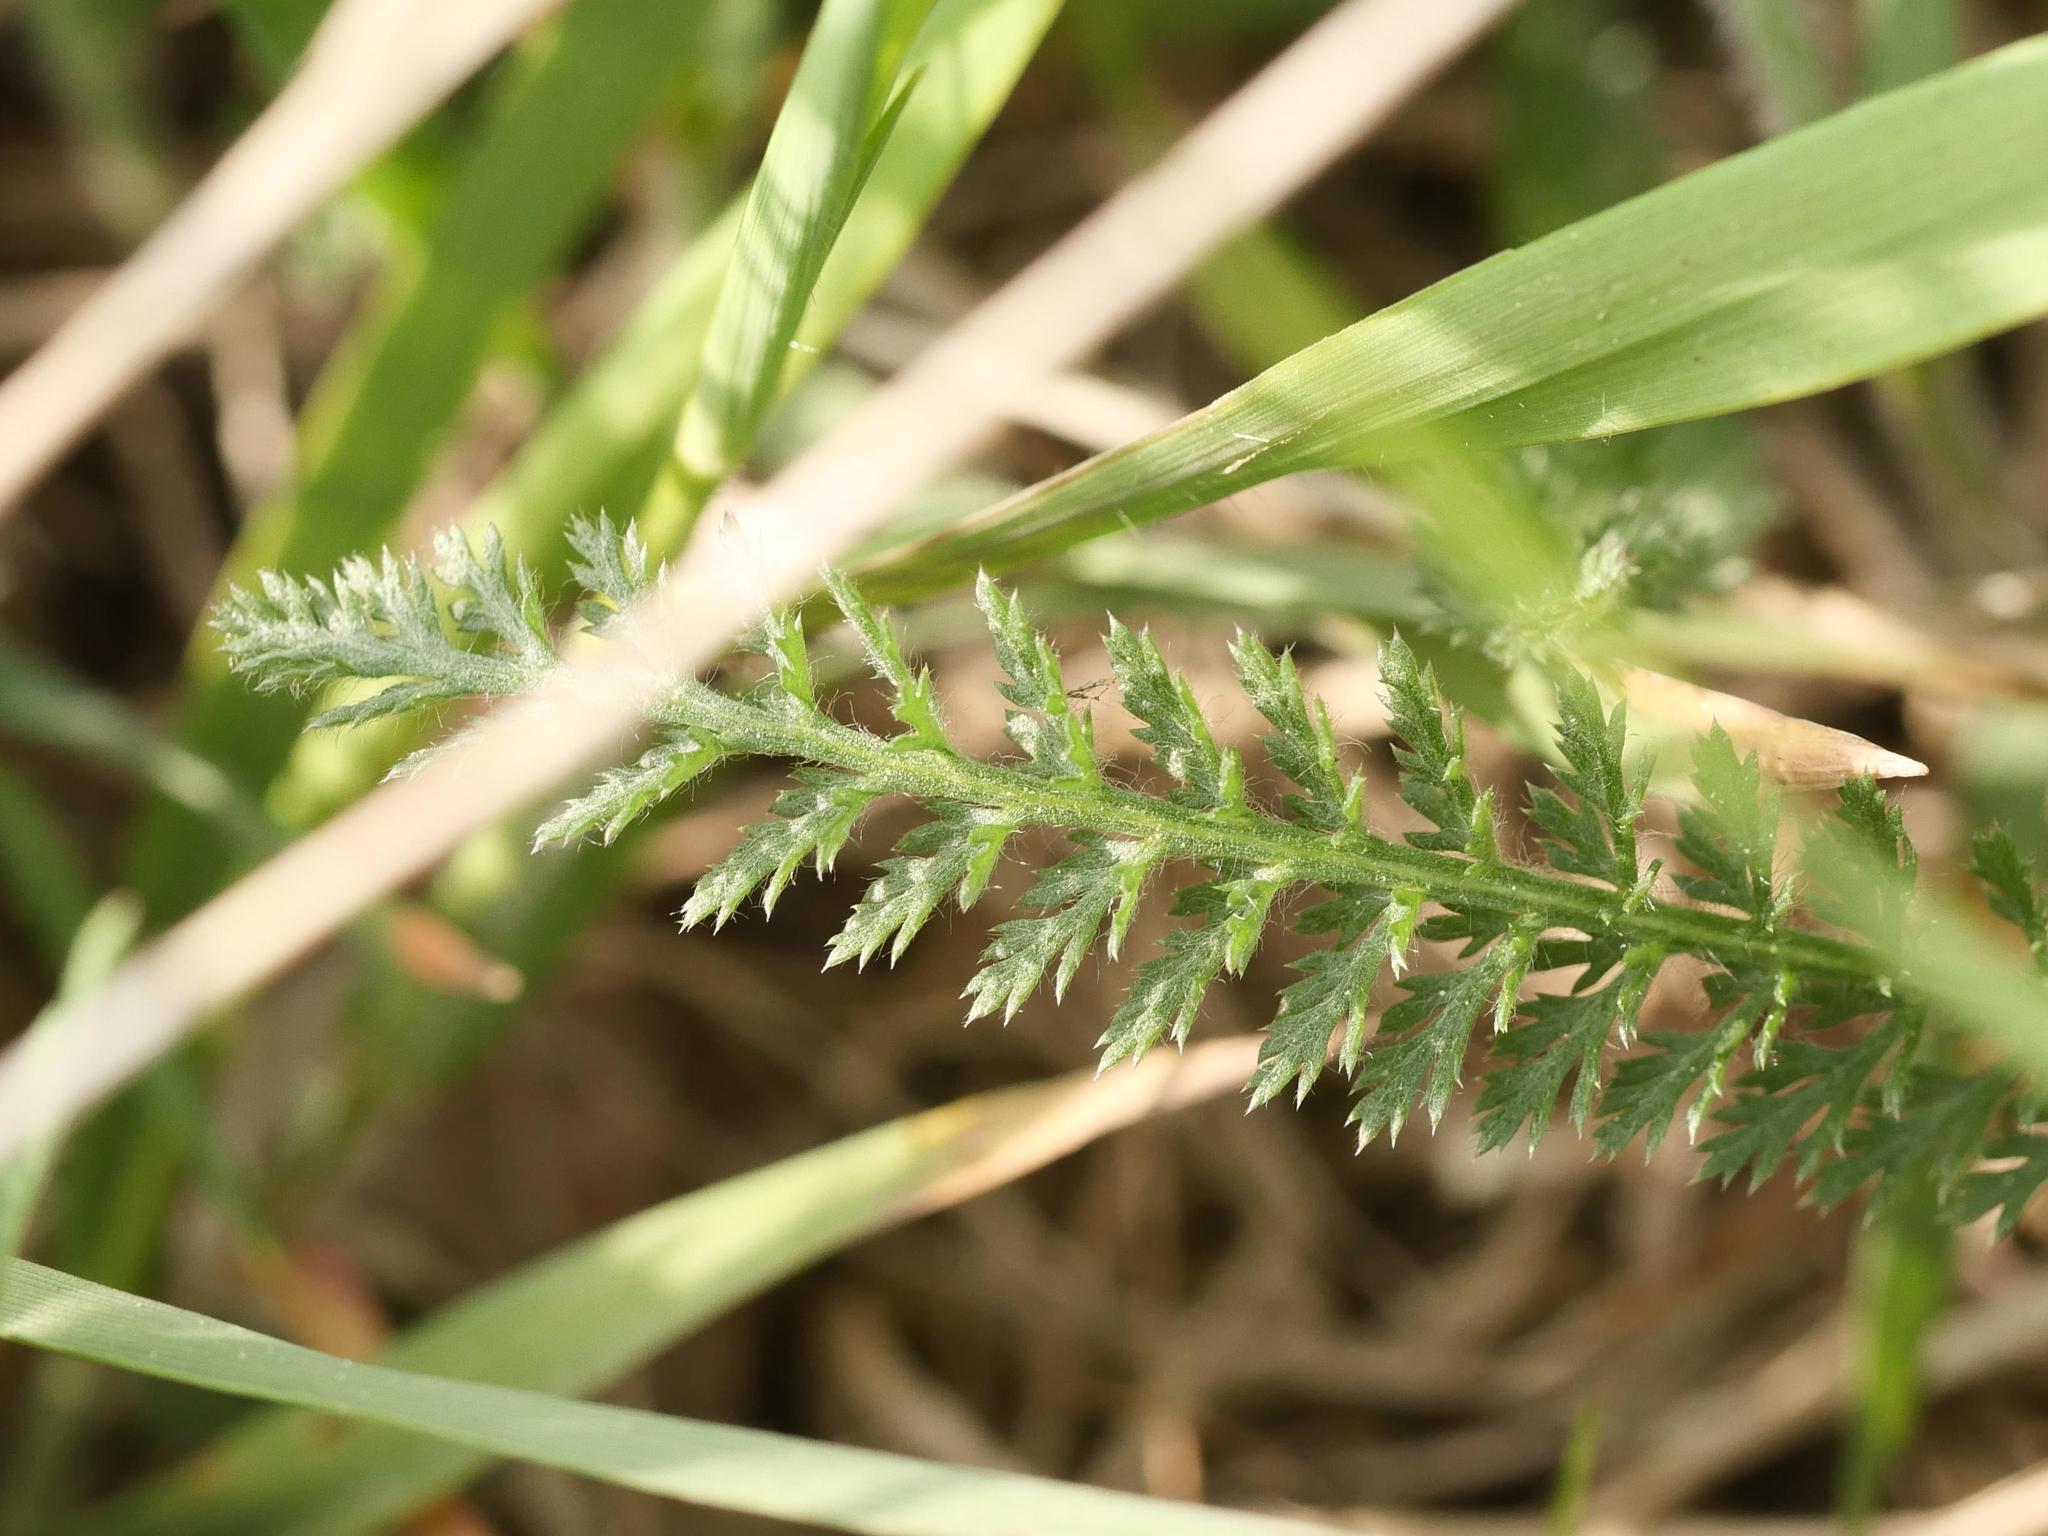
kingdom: Plantae
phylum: Tracheophyta
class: Magnoliopsida
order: Asterales
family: Asteraceae
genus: Achillea
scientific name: Achillea millefolium
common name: Yarrow
